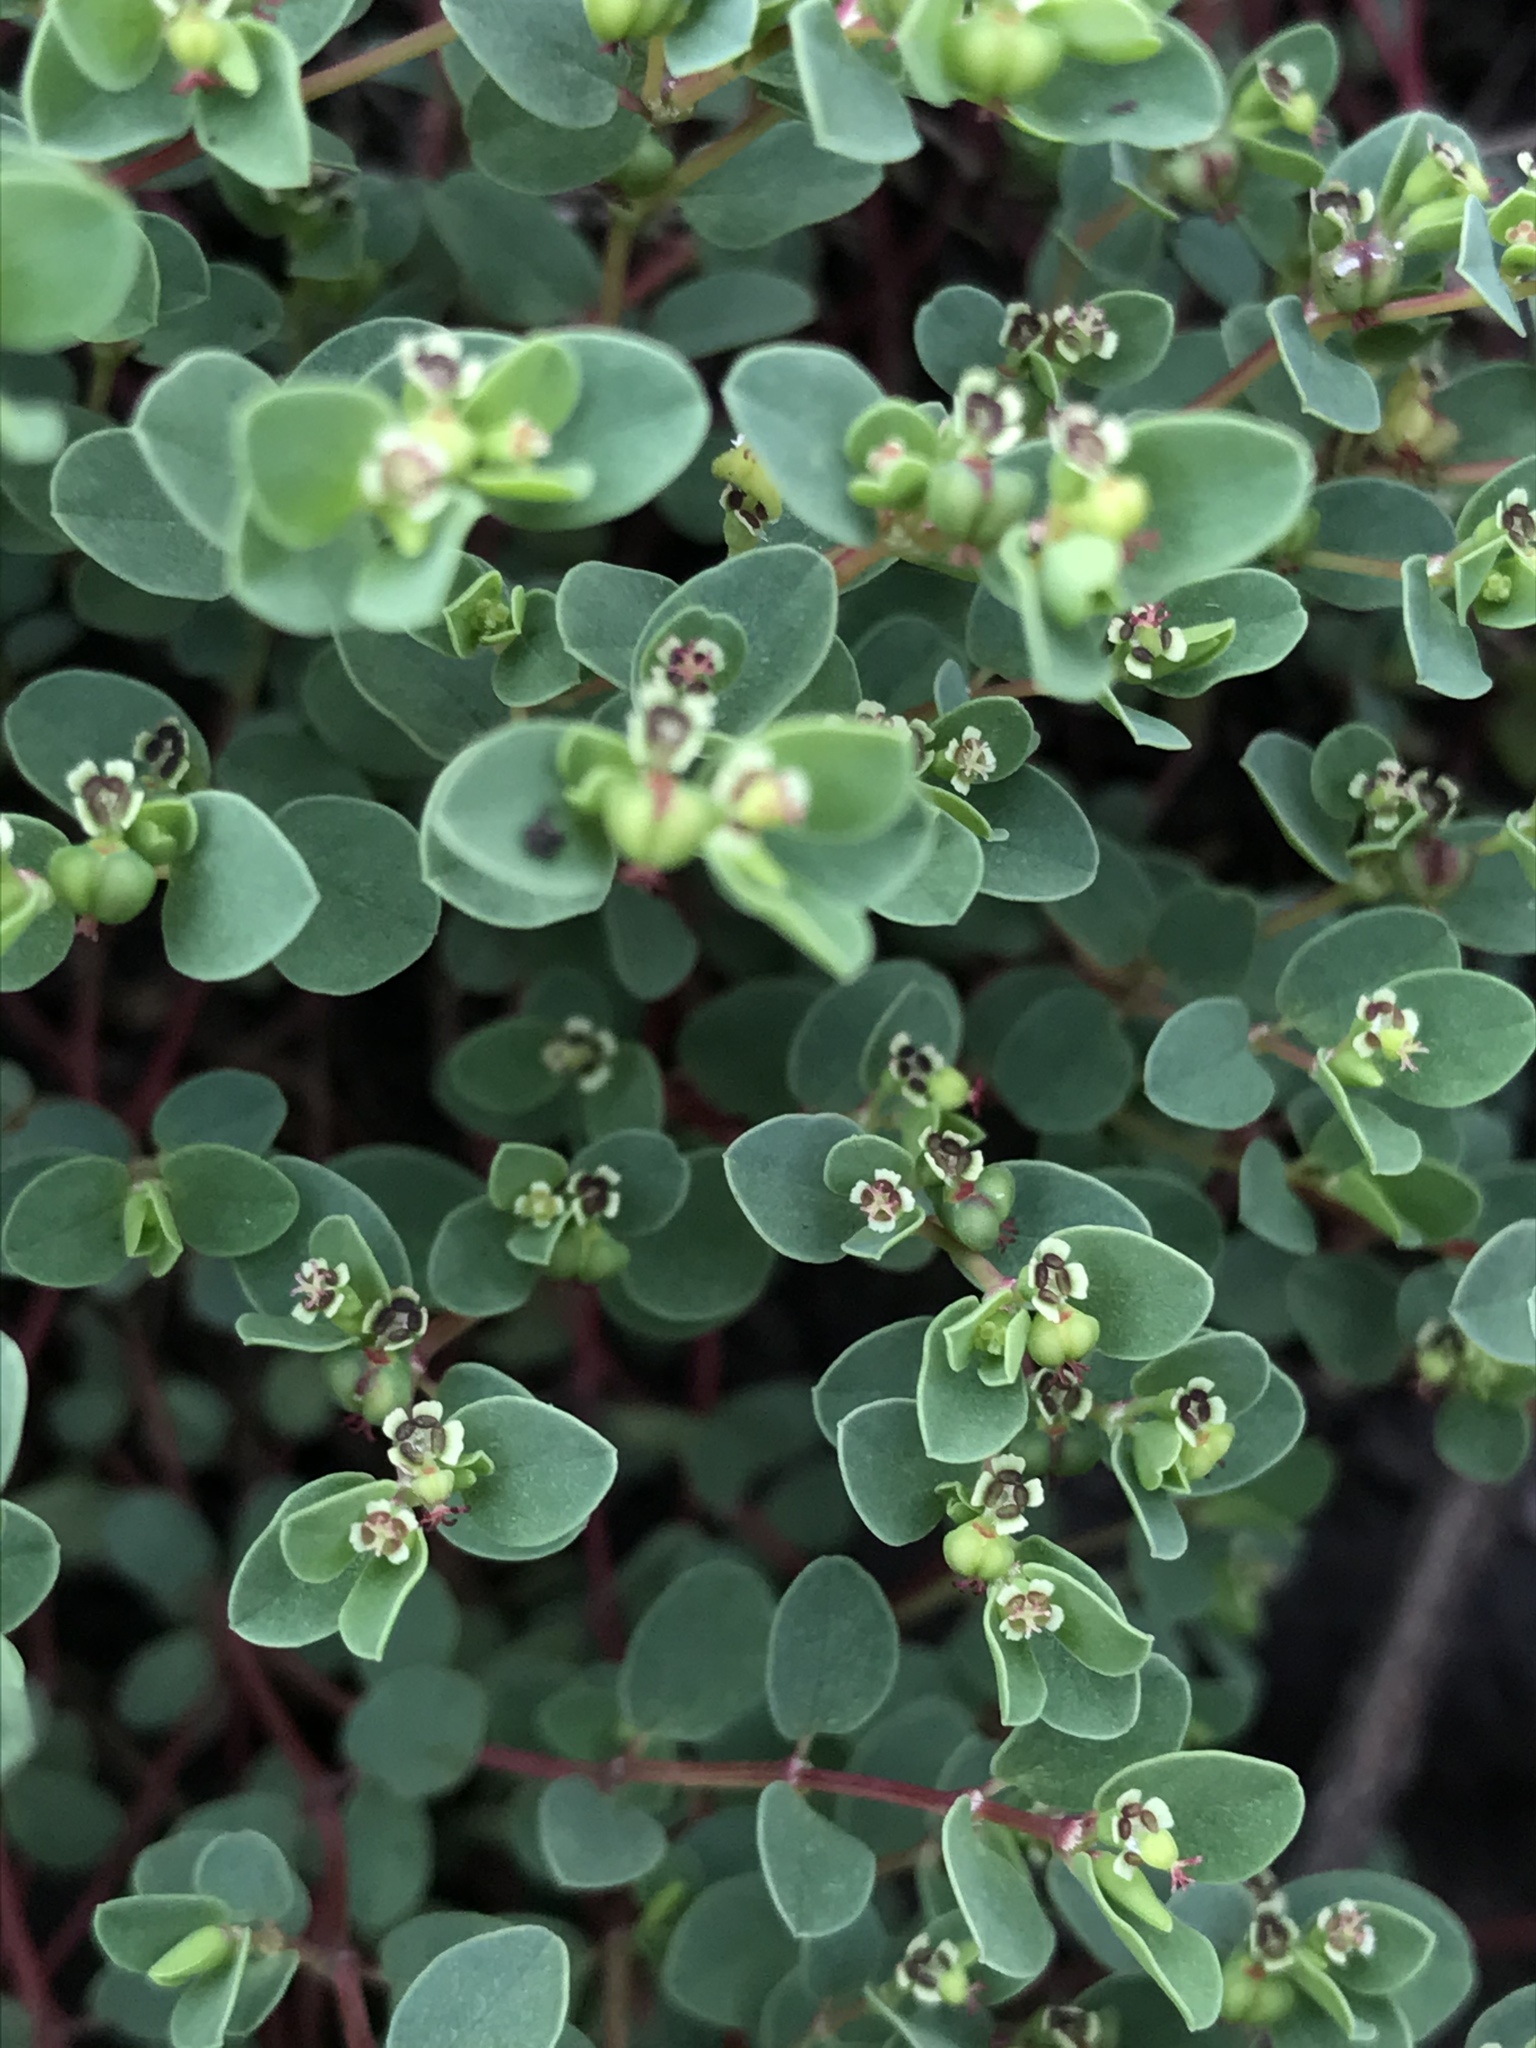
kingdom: Plantae
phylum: Tracheophyta
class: Magnoliopsida
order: Malpighiales
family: Euphorbiaceae
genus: Euphorbia
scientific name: Euphorbia orbiculata
